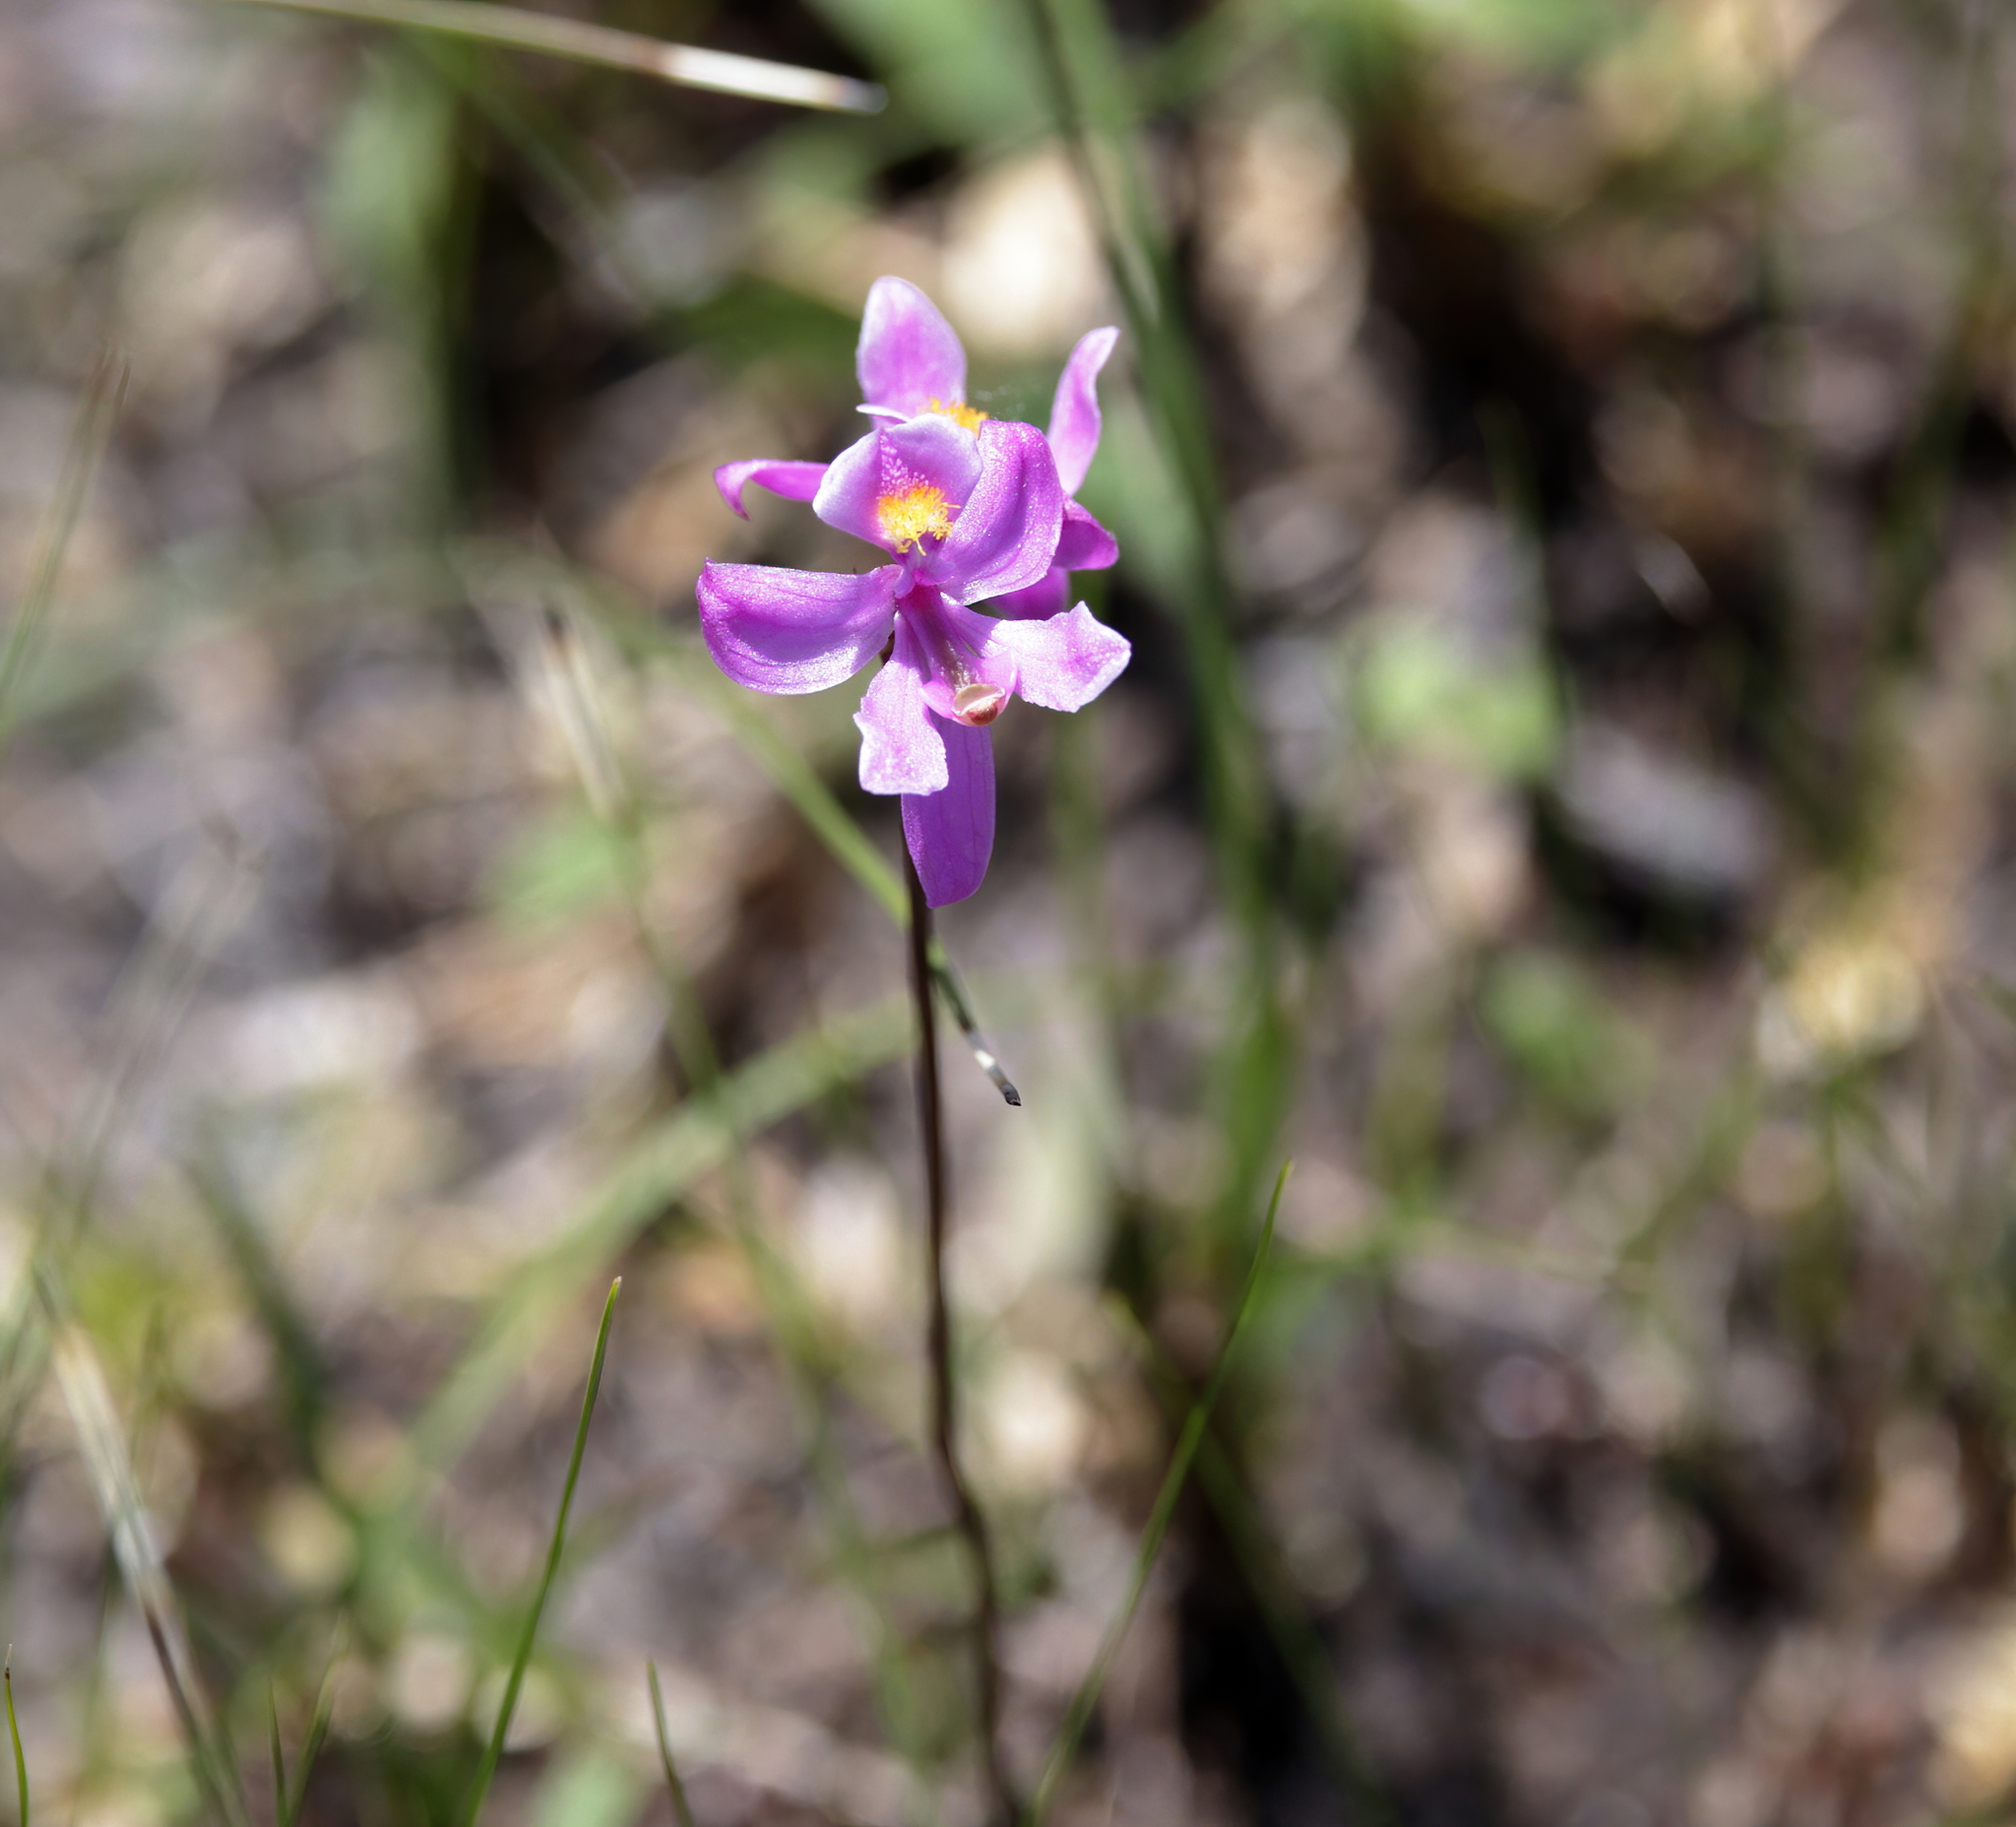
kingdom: Plantae
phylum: Tracheophyta
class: Liliopsida
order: Asparagales
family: Orchidaceae
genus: Calopogon
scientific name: Calopogon multiflorus
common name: Many-flowered grass-pink orchid
